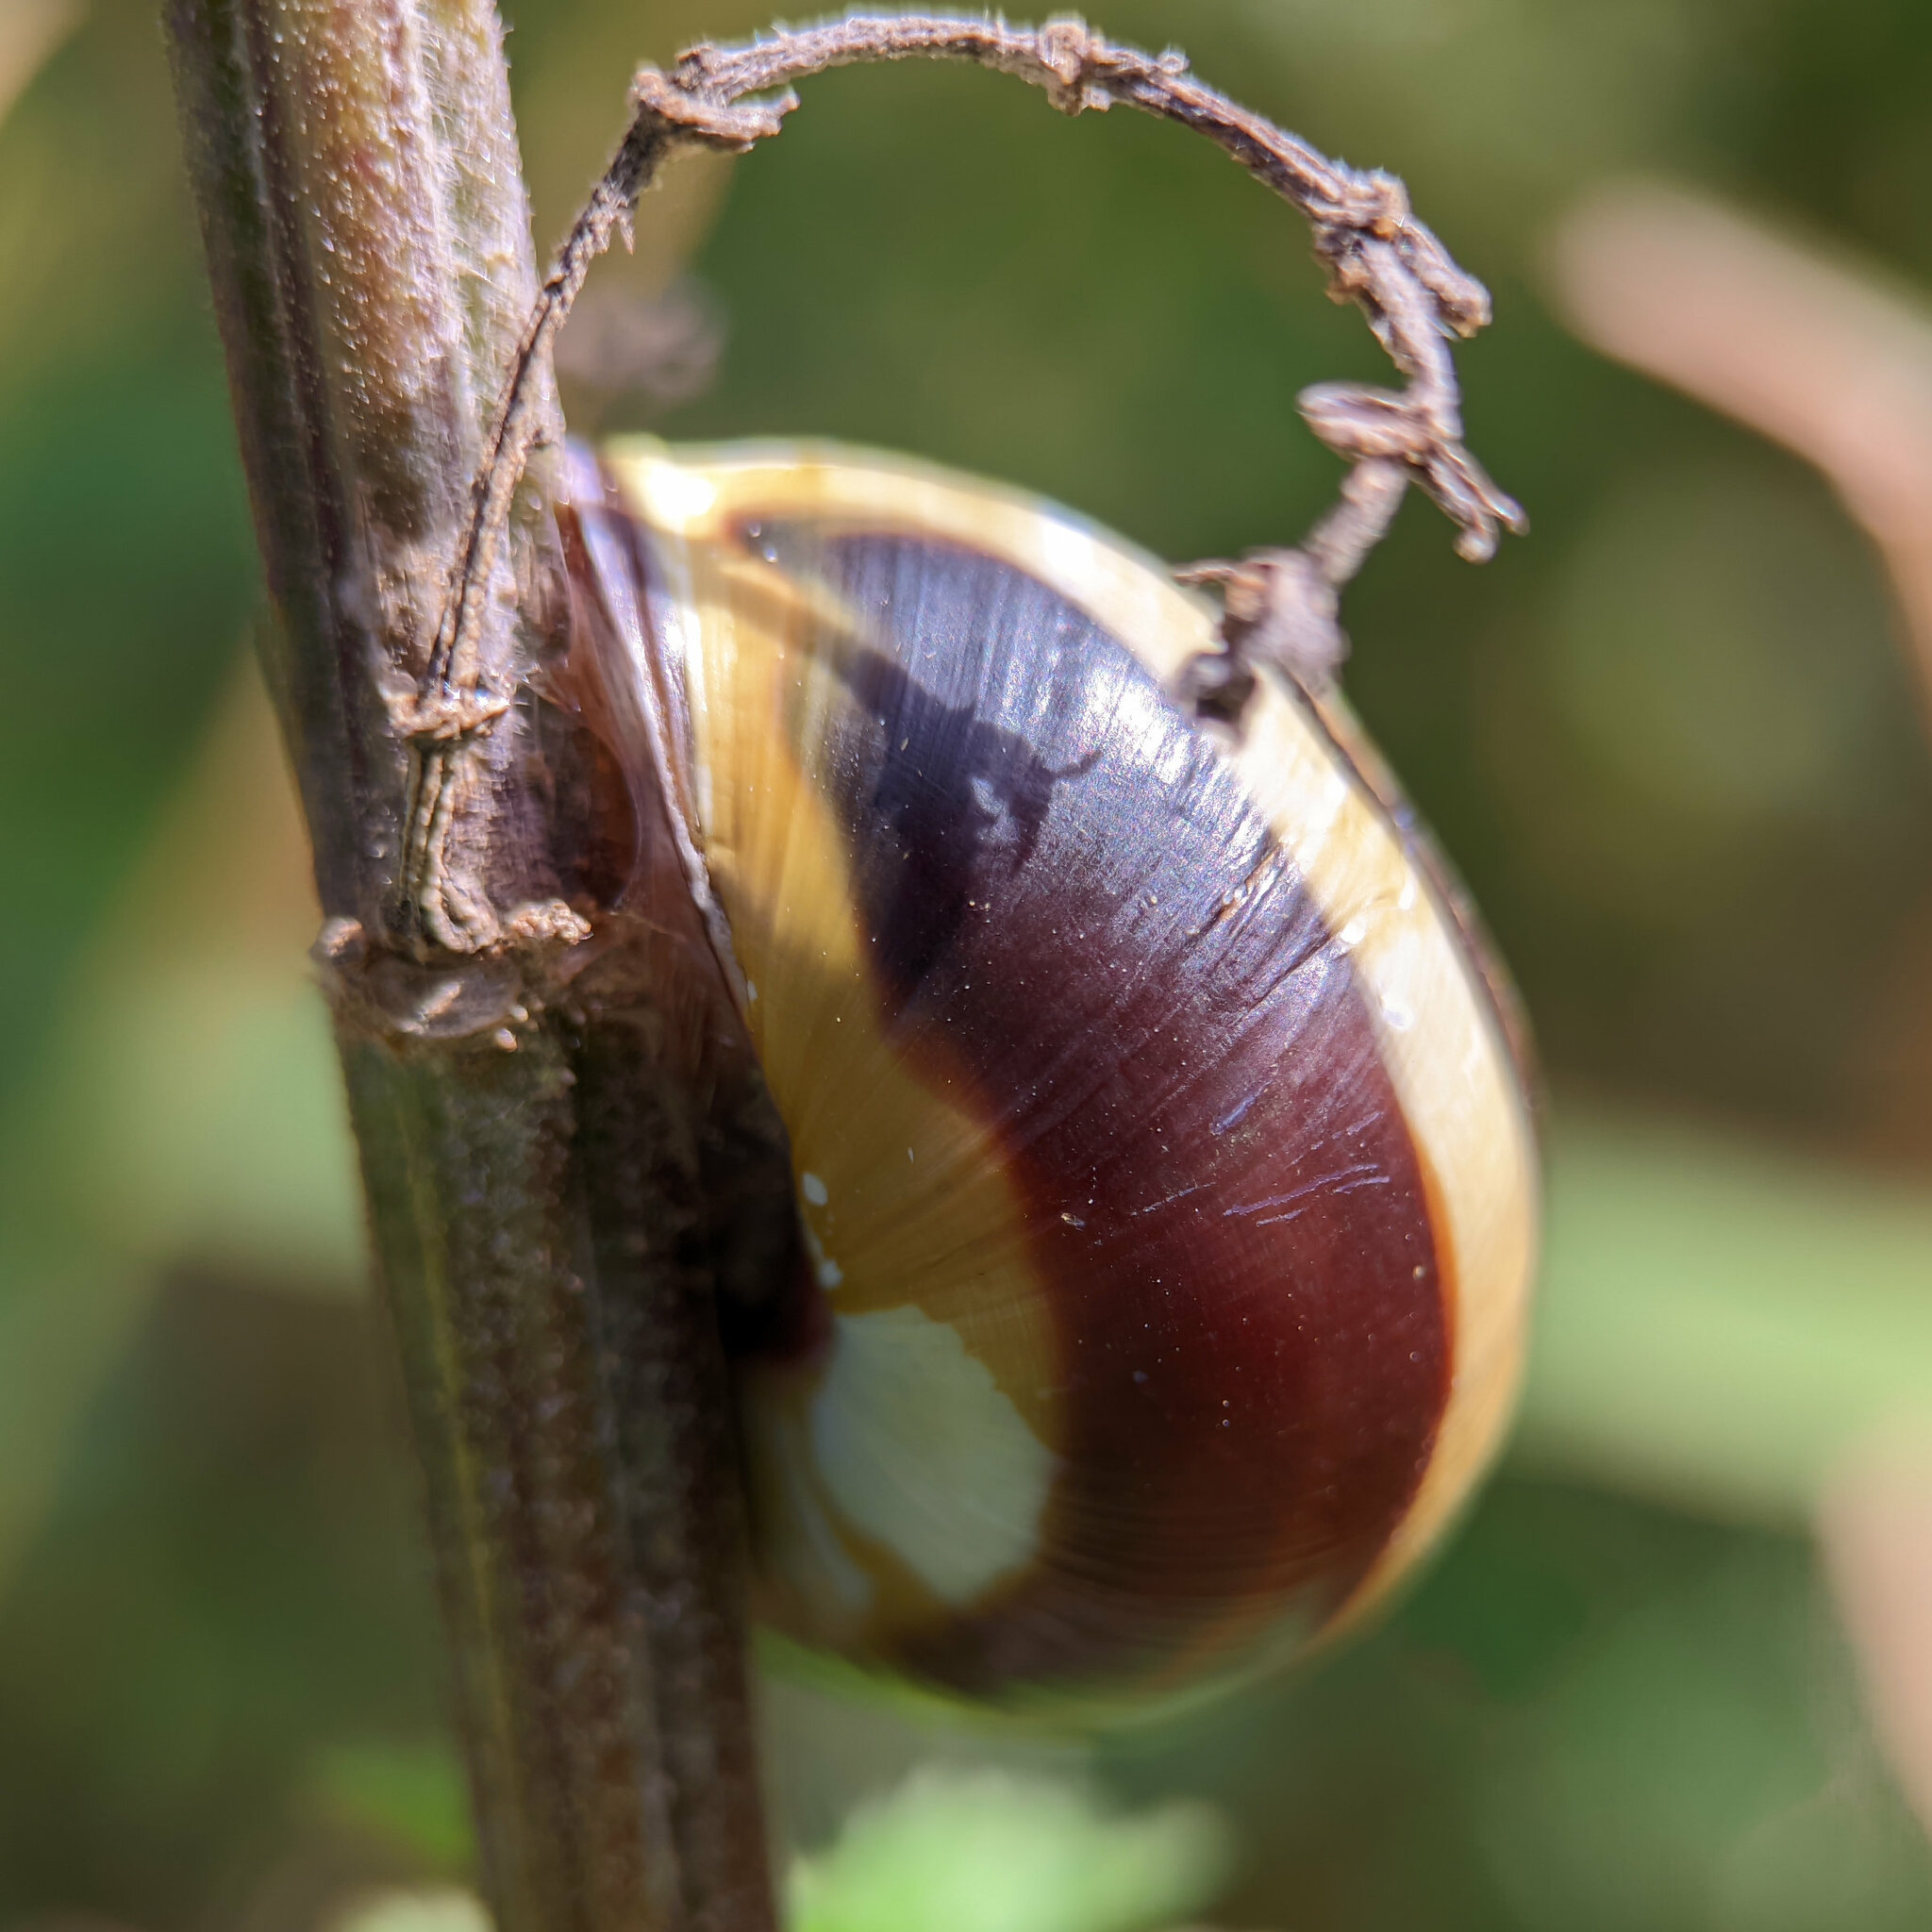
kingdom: Animalia
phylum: Mollusca
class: Gastropoda
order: Stylommatophora
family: Helicidae
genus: Cepaea
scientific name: Cepaea nemoralis
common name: Grovesnail
